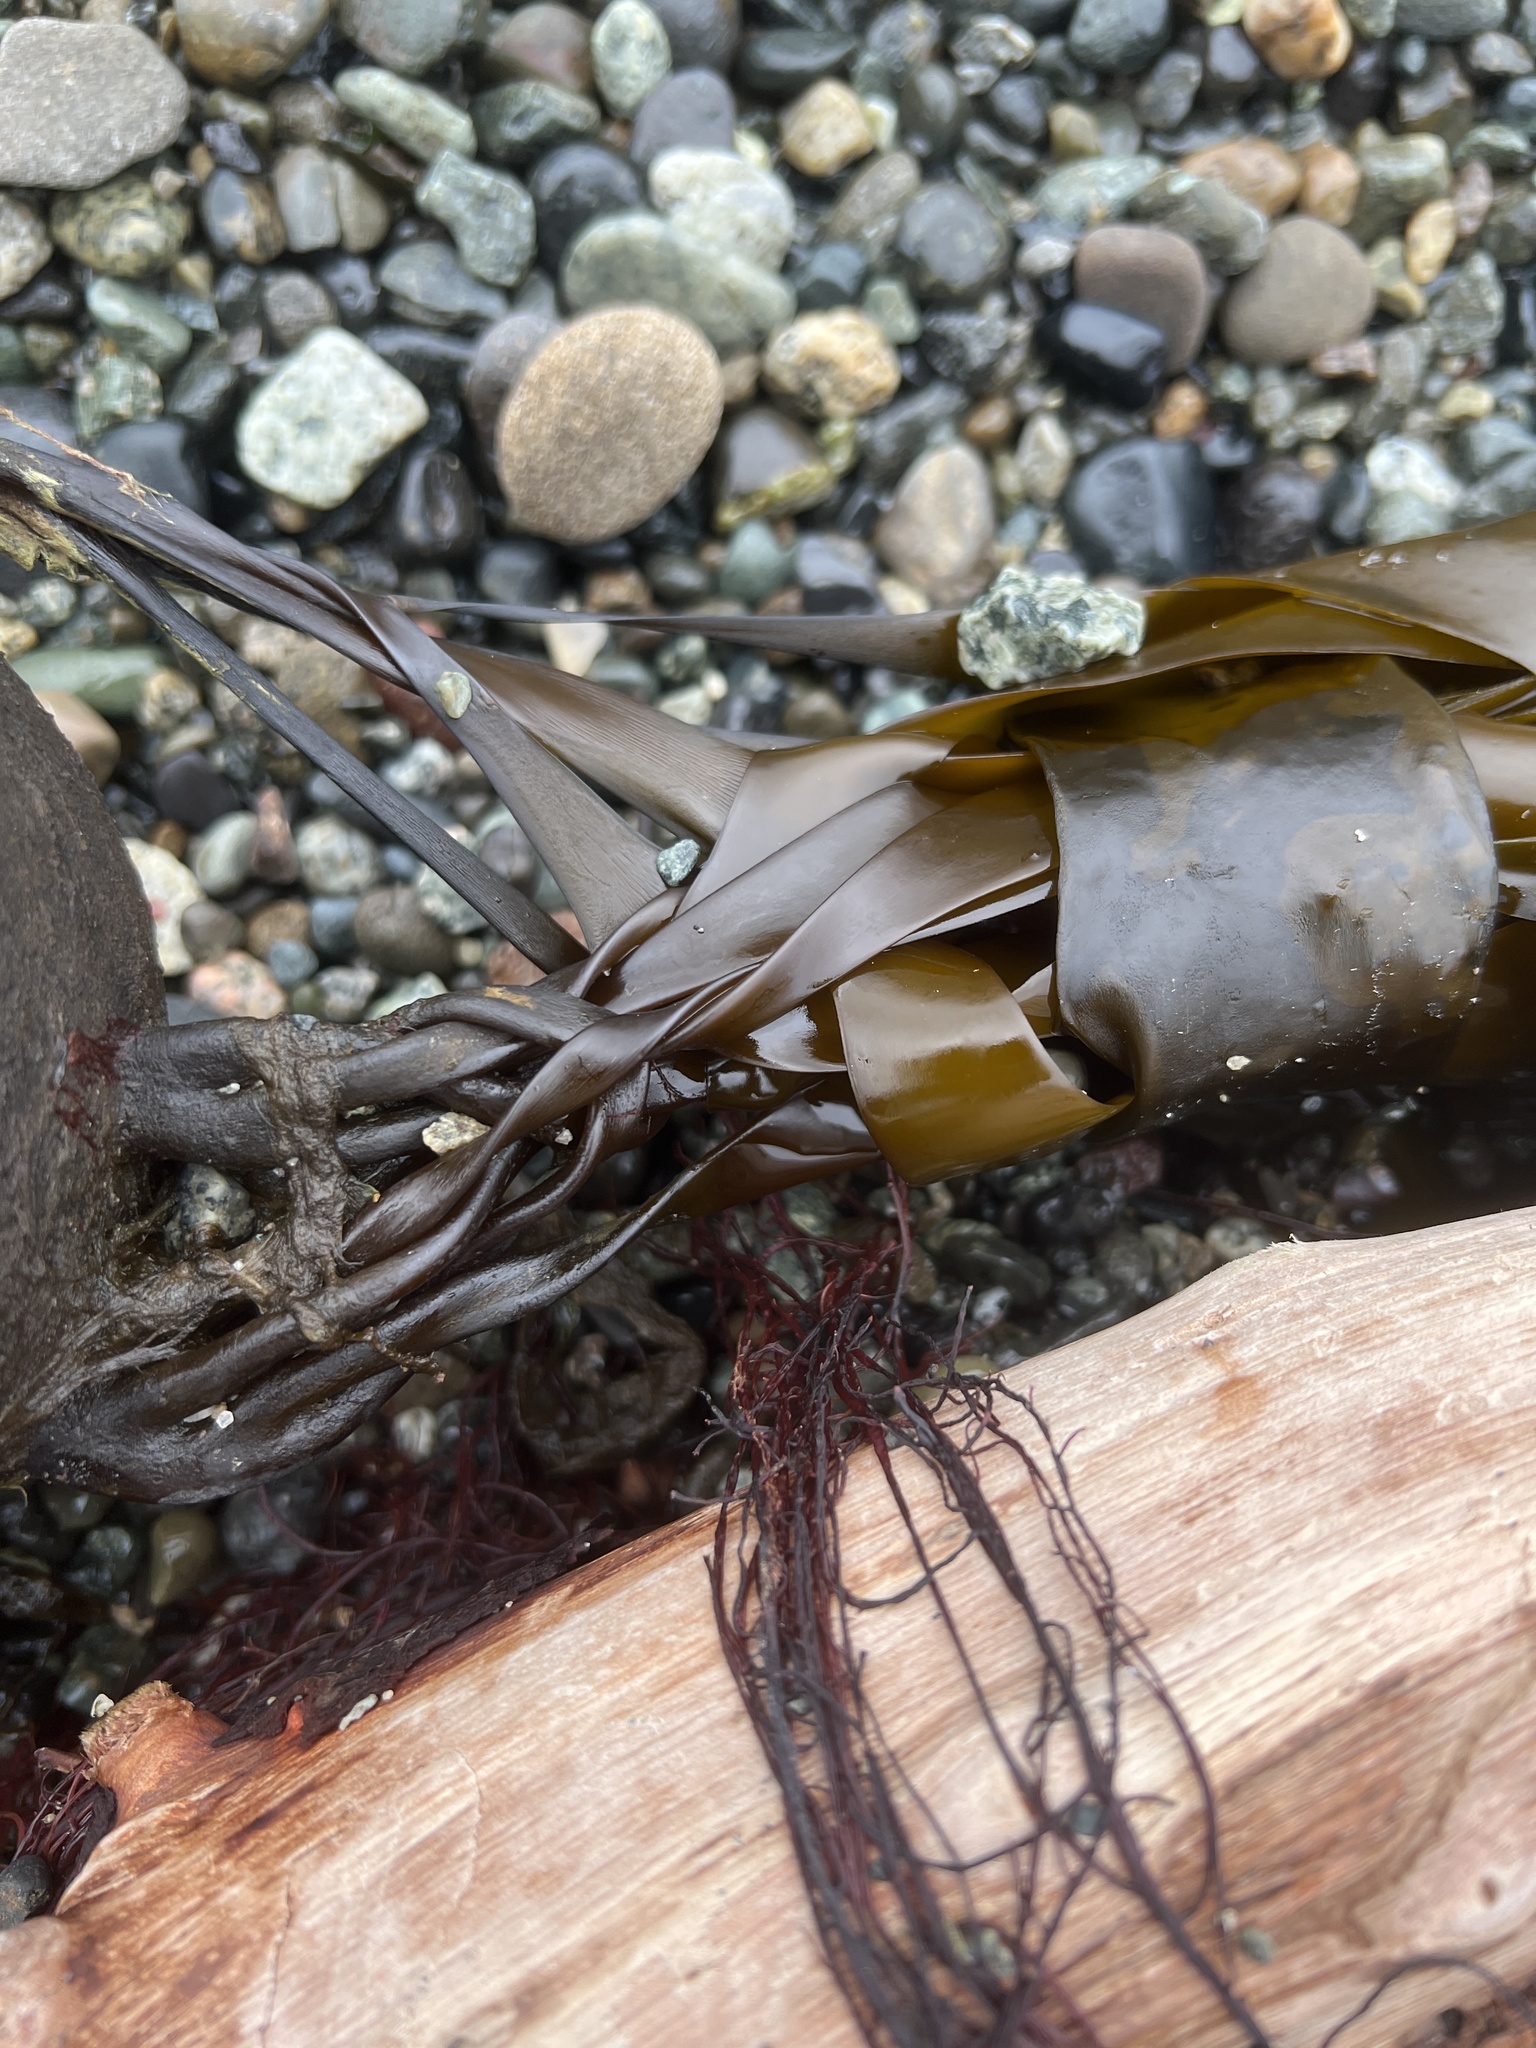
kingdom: Chromista
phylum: Ochrophyta
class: Phaeophyceae
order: Laminariales
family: Laminariaceae
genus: Nereocystis
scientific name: Nereocystis luetkeana
